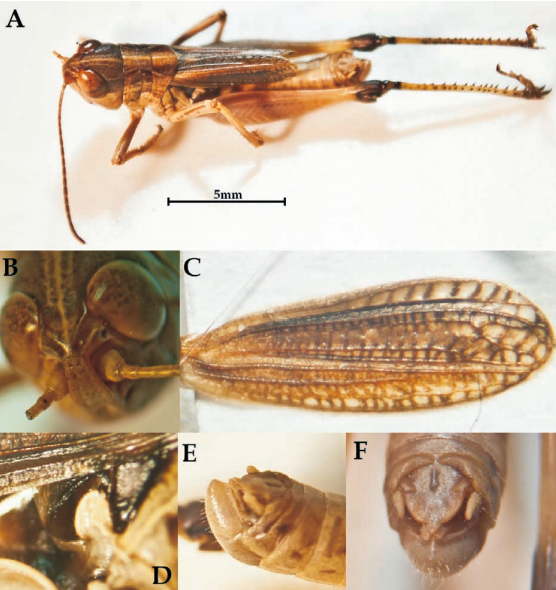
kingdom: Animalia
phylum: Arthropoda
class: Insecta
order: Orthoptera
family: Acrididae
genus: Rammeihippus
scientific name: Rammeihippus dinaricus
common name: Dinarian grasshopper
